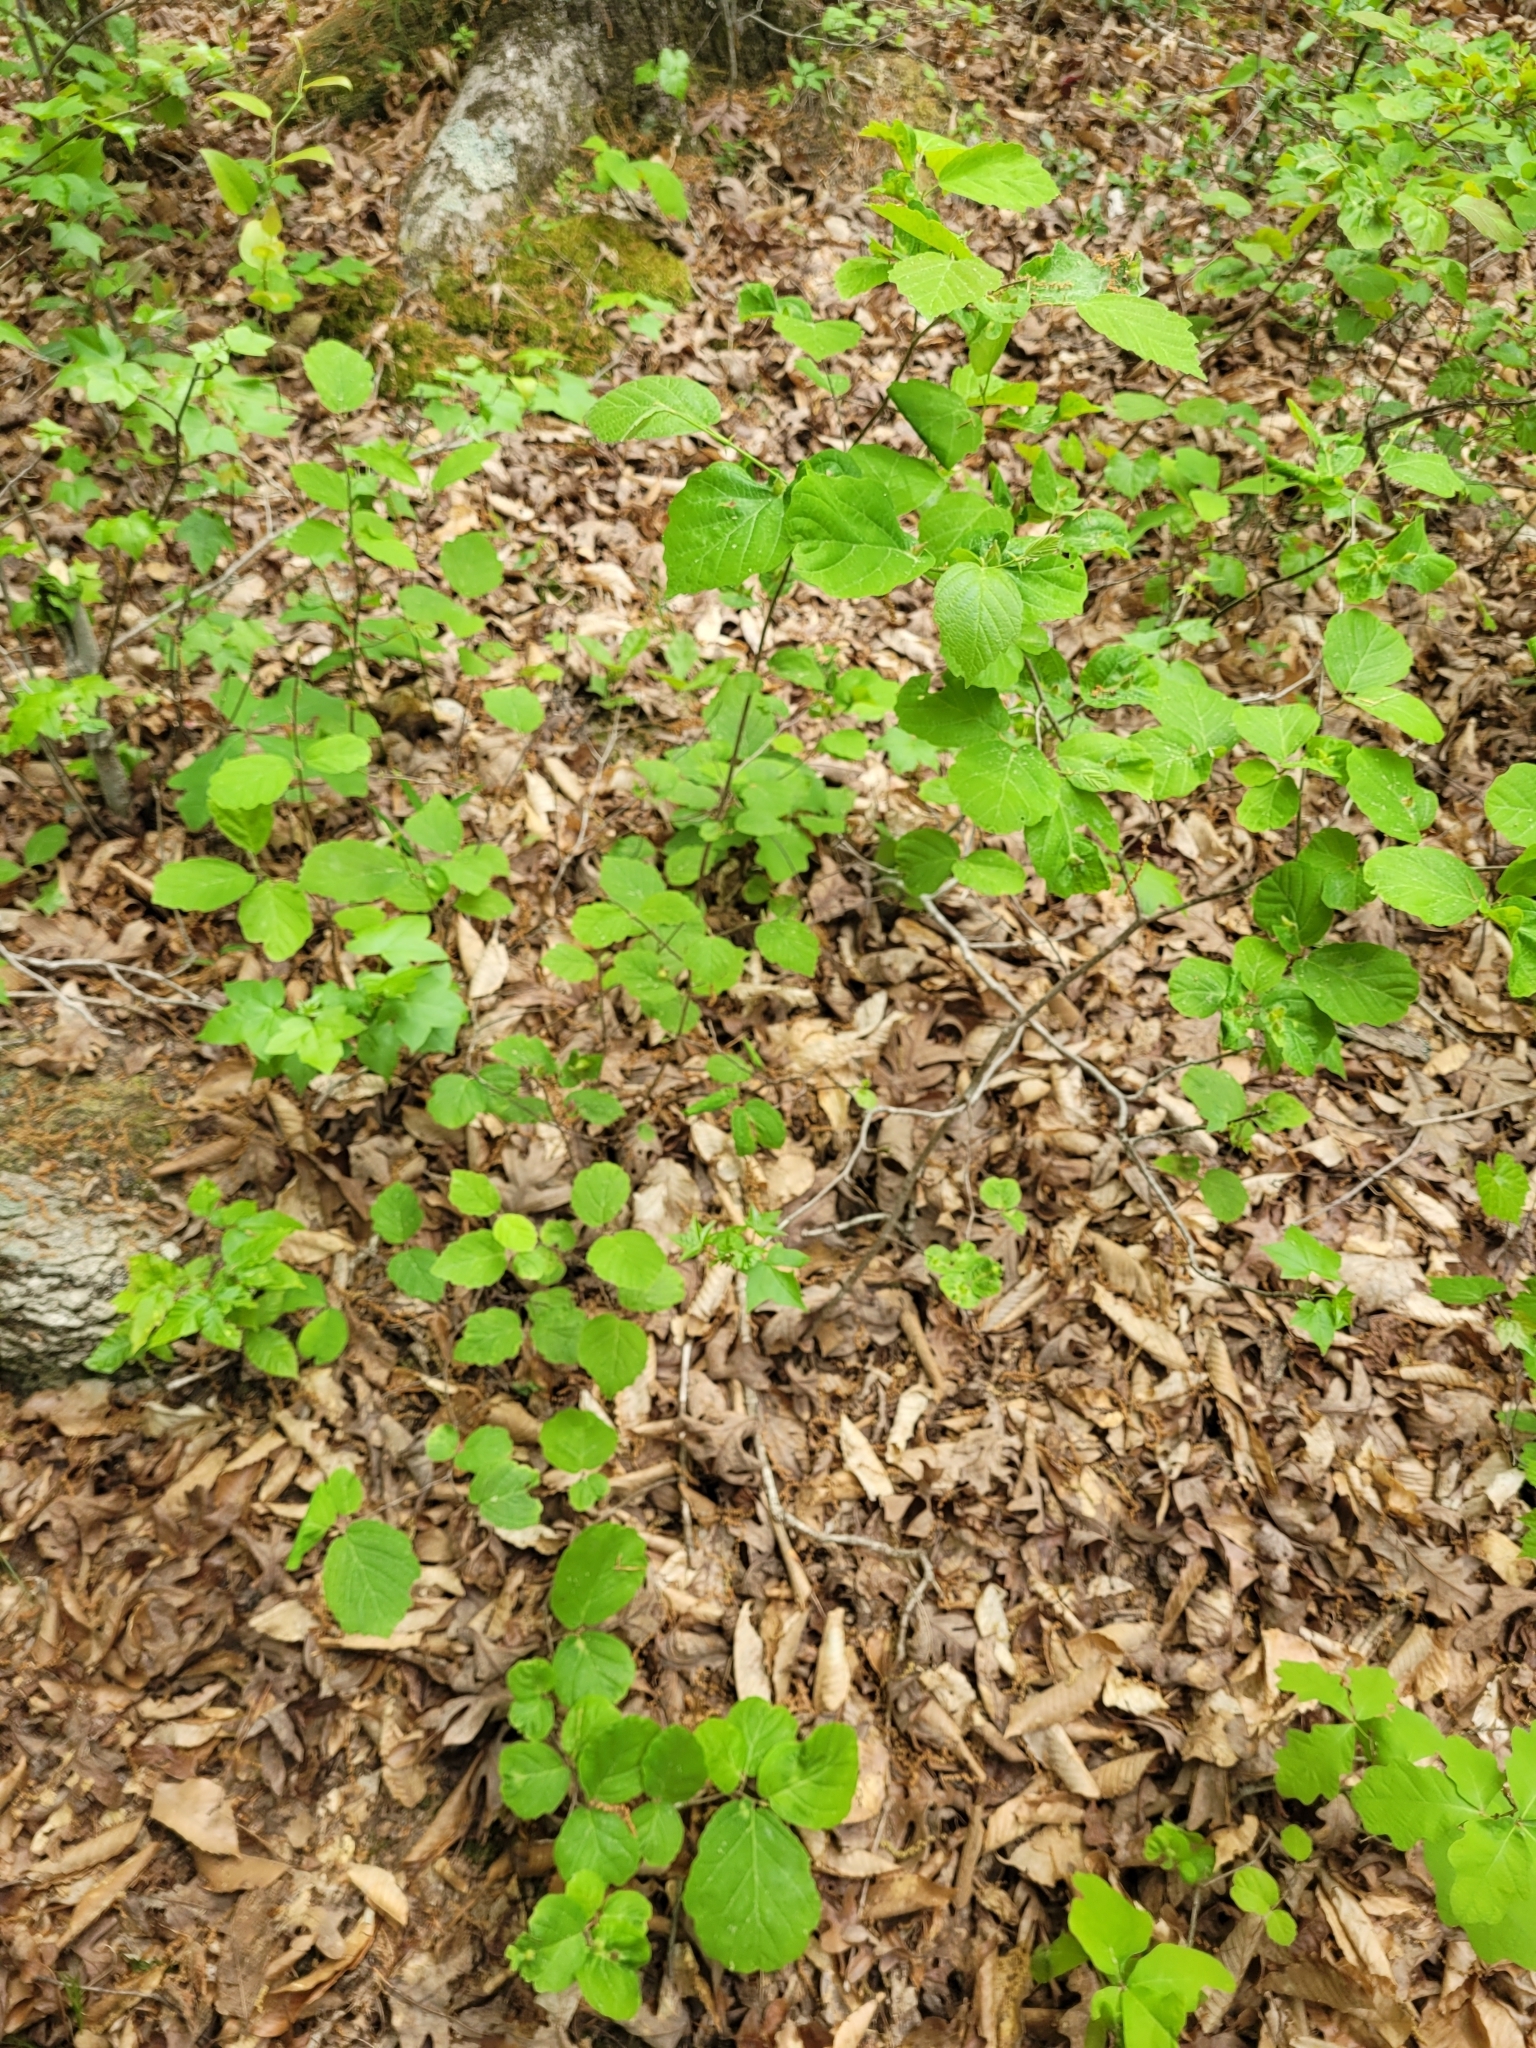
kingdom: Plantae
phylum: Tracheophyta
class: Magnoliopsida
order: Saxifragales
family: Hamamelidaceae
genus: Hamamelis
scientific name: Hamamelis virginiana
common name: Witch-hazel
